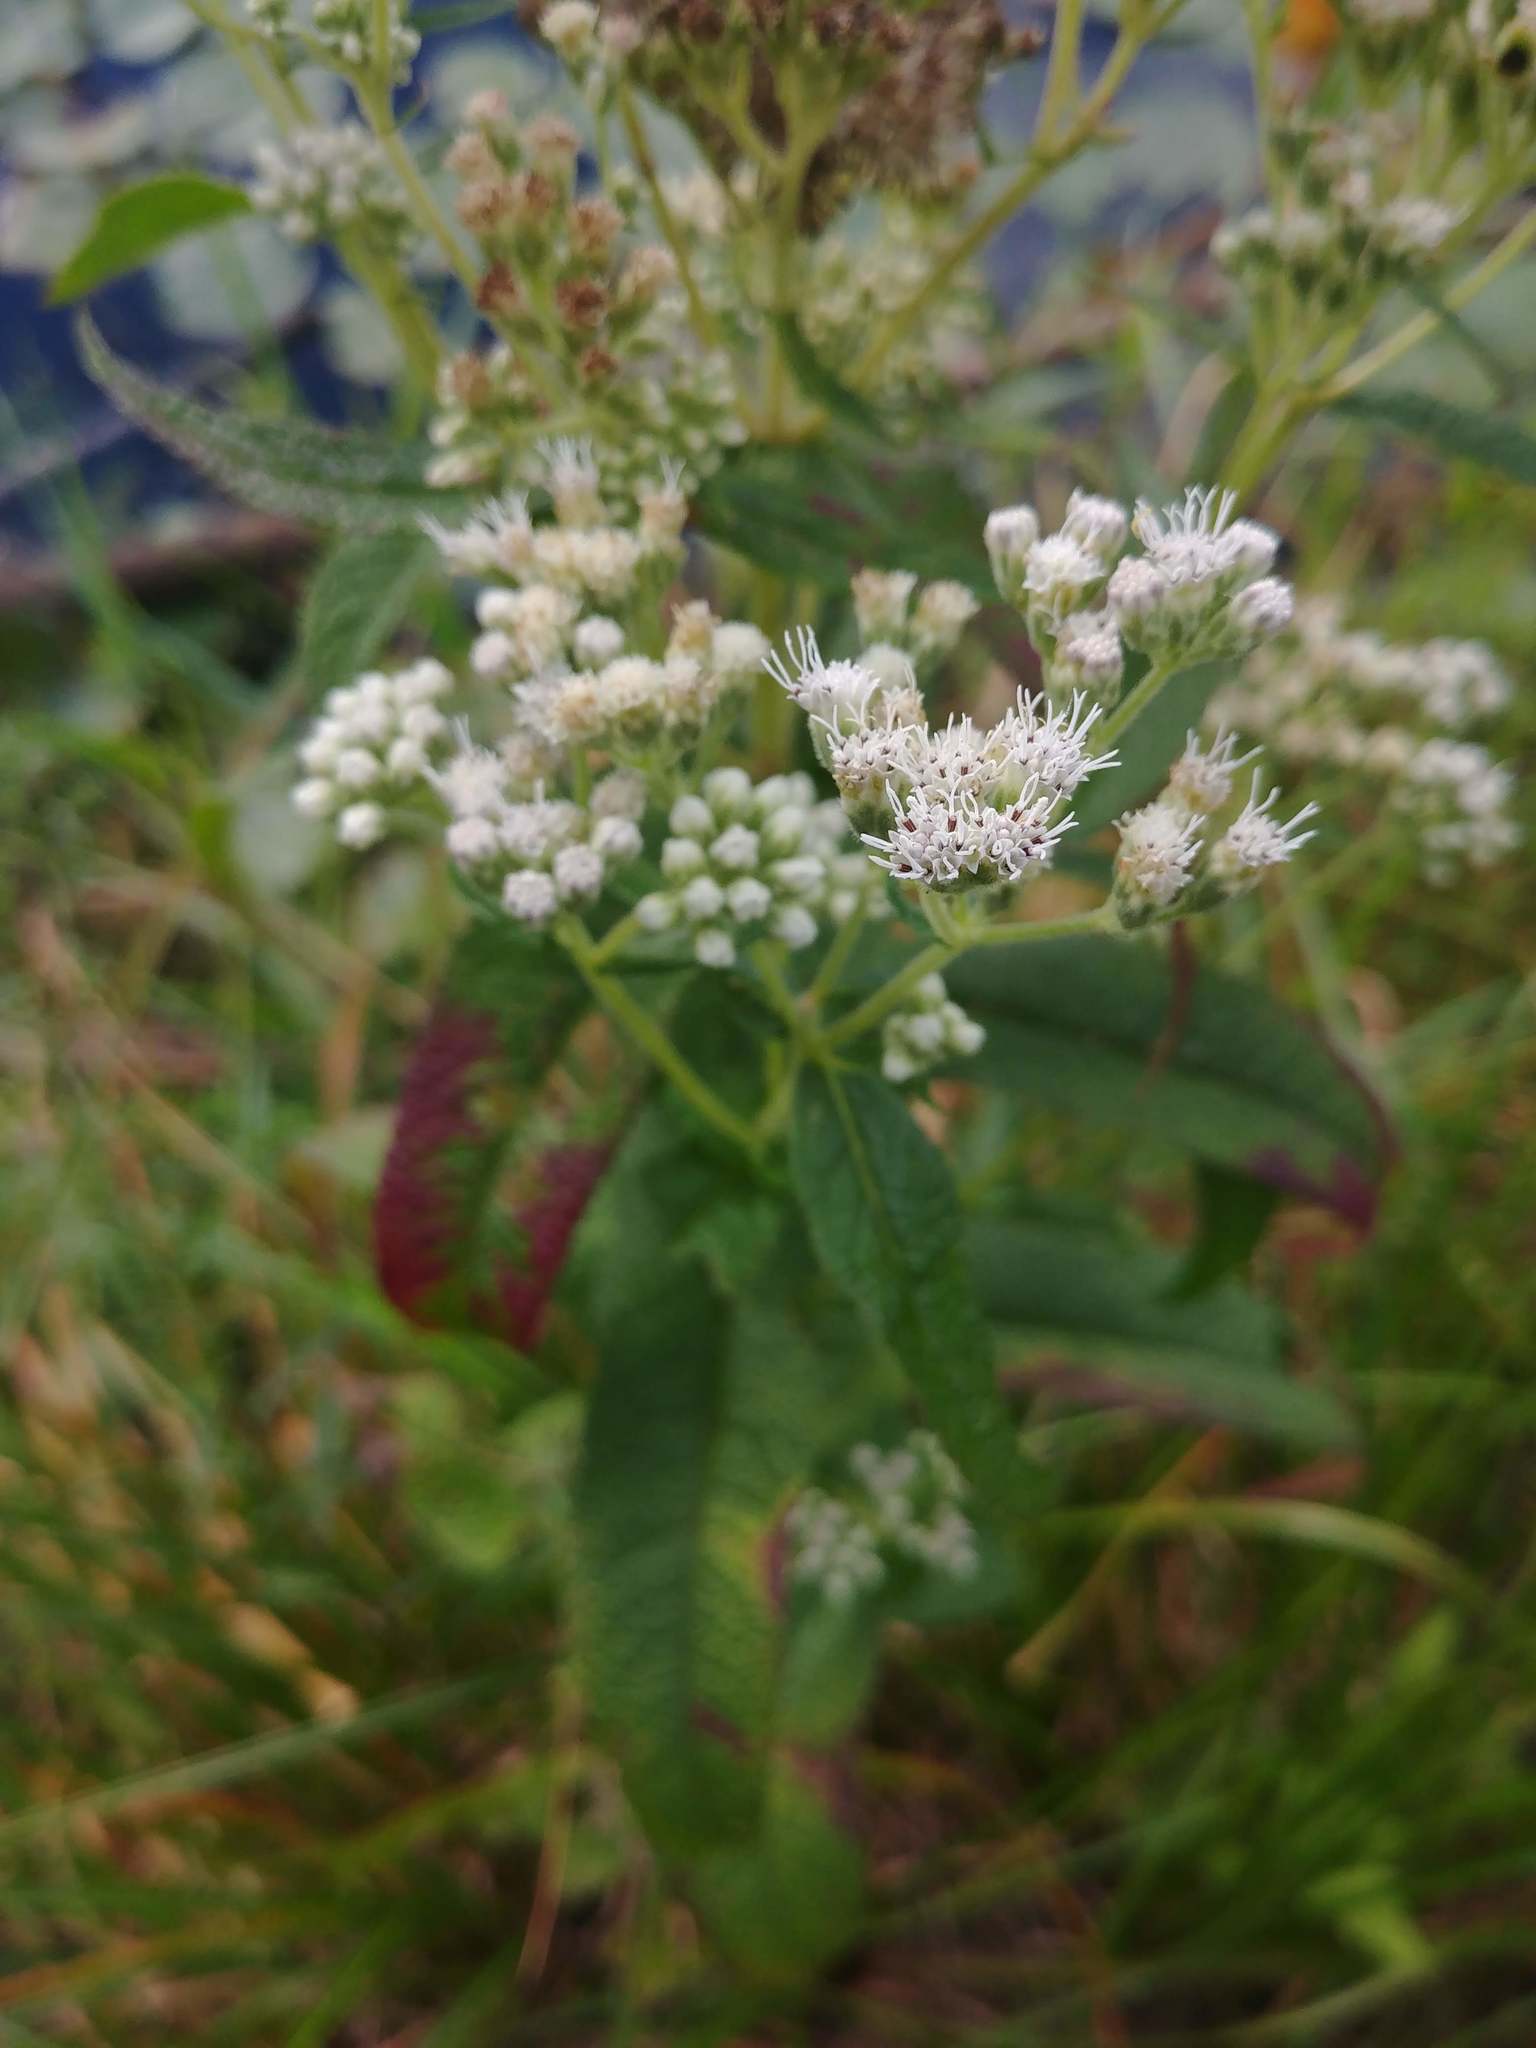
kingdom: Plantae
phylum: Tracheophyta
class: Magnoliopsida
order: Asterales
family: Asteraceae
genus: Eupatorium
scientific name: Eupatorium perfoliatum
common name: Boneset
